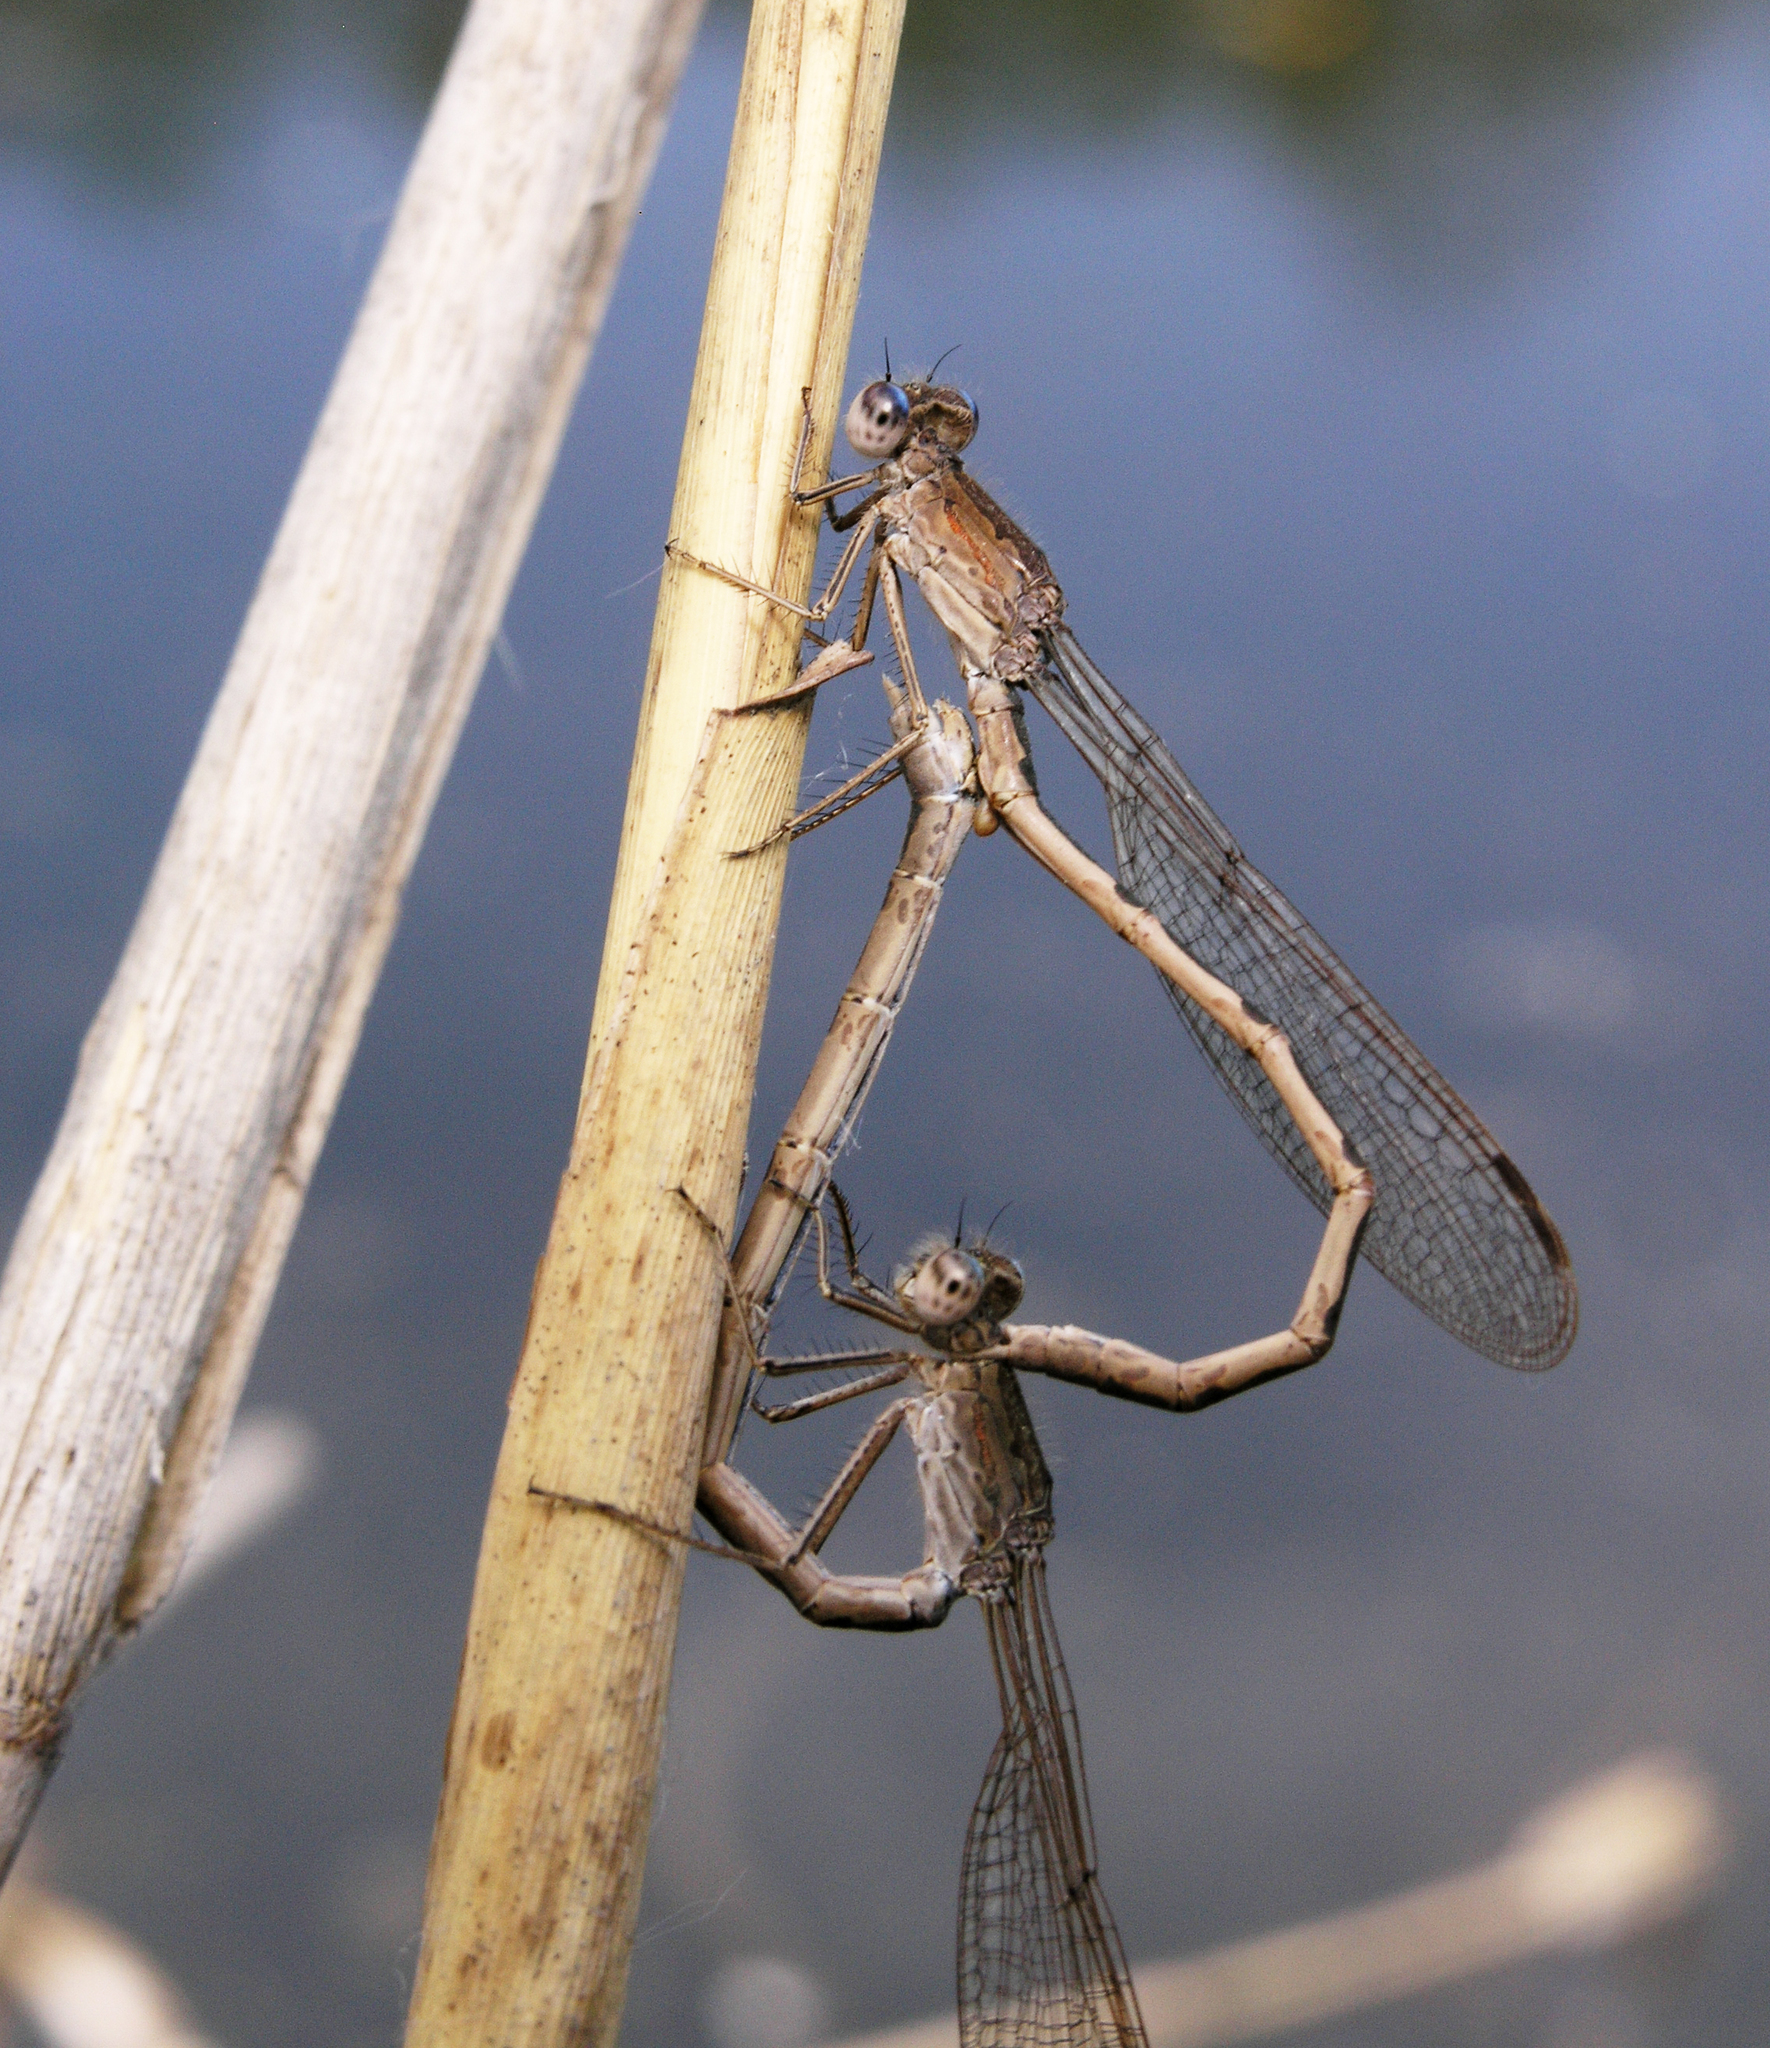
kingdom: Animalia
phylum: Arthropoda
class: Insecta
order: Odonata
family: Lestidae
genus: Sympecma
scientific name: Sympecma paedisca
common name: Siberian winter damsel
